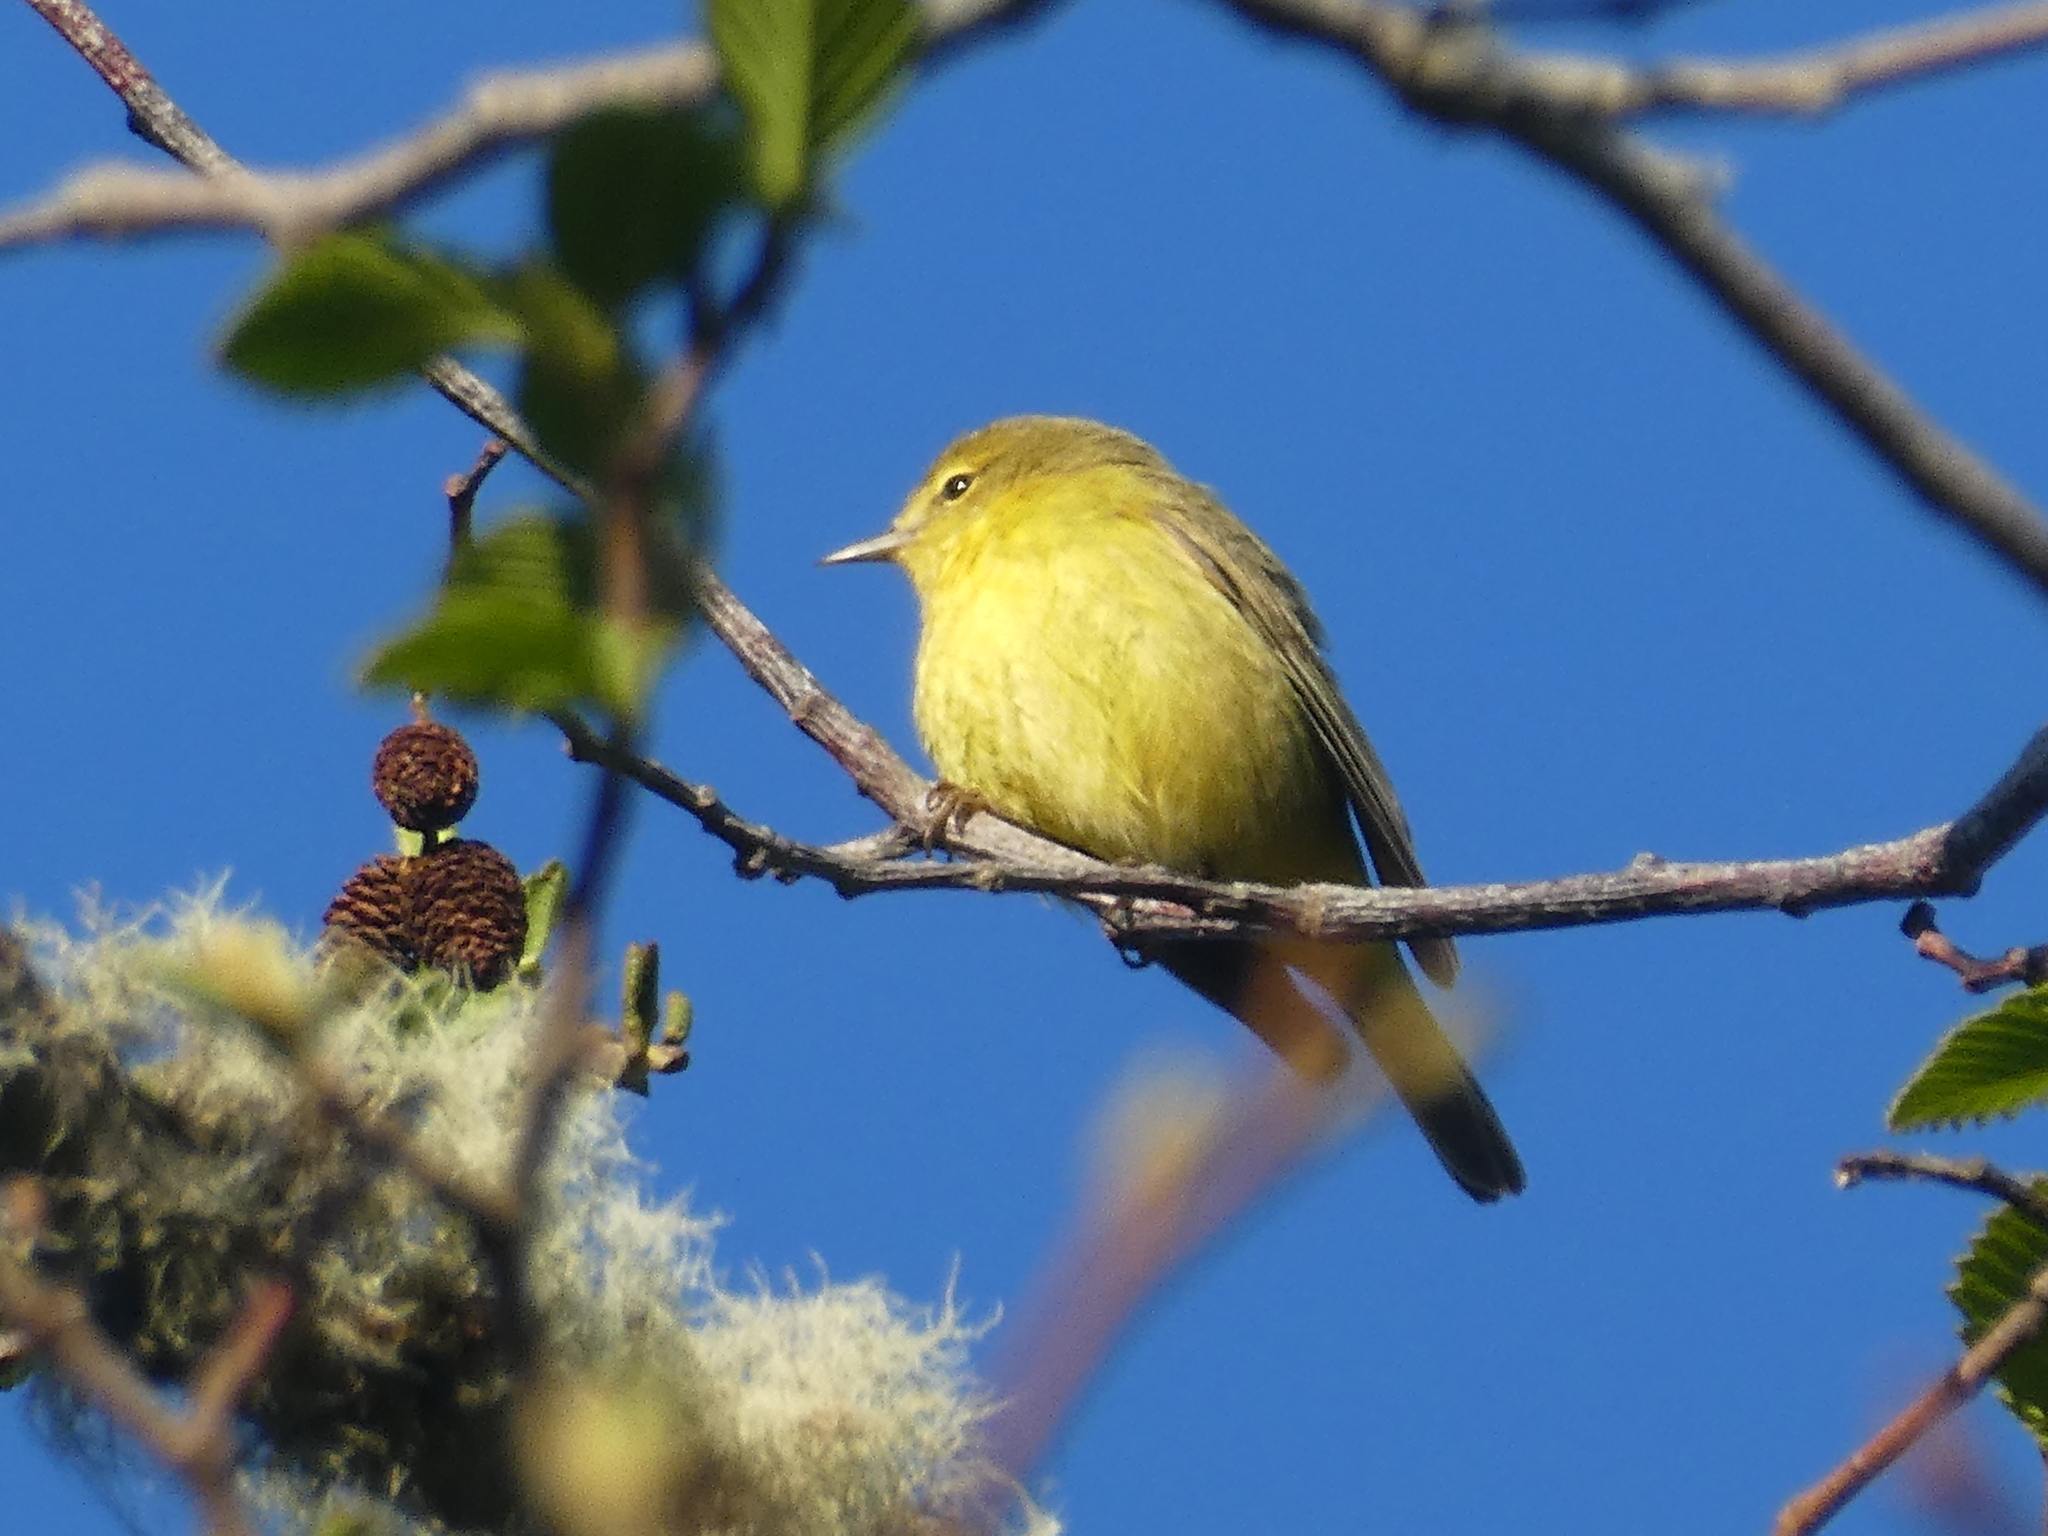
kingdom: Animalia
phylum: Chordata
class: Aves
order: Passeriformes
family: Parulidae
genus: Leiothlypis
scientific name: Leiothlypis celata
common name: Orange-crowned warbler
